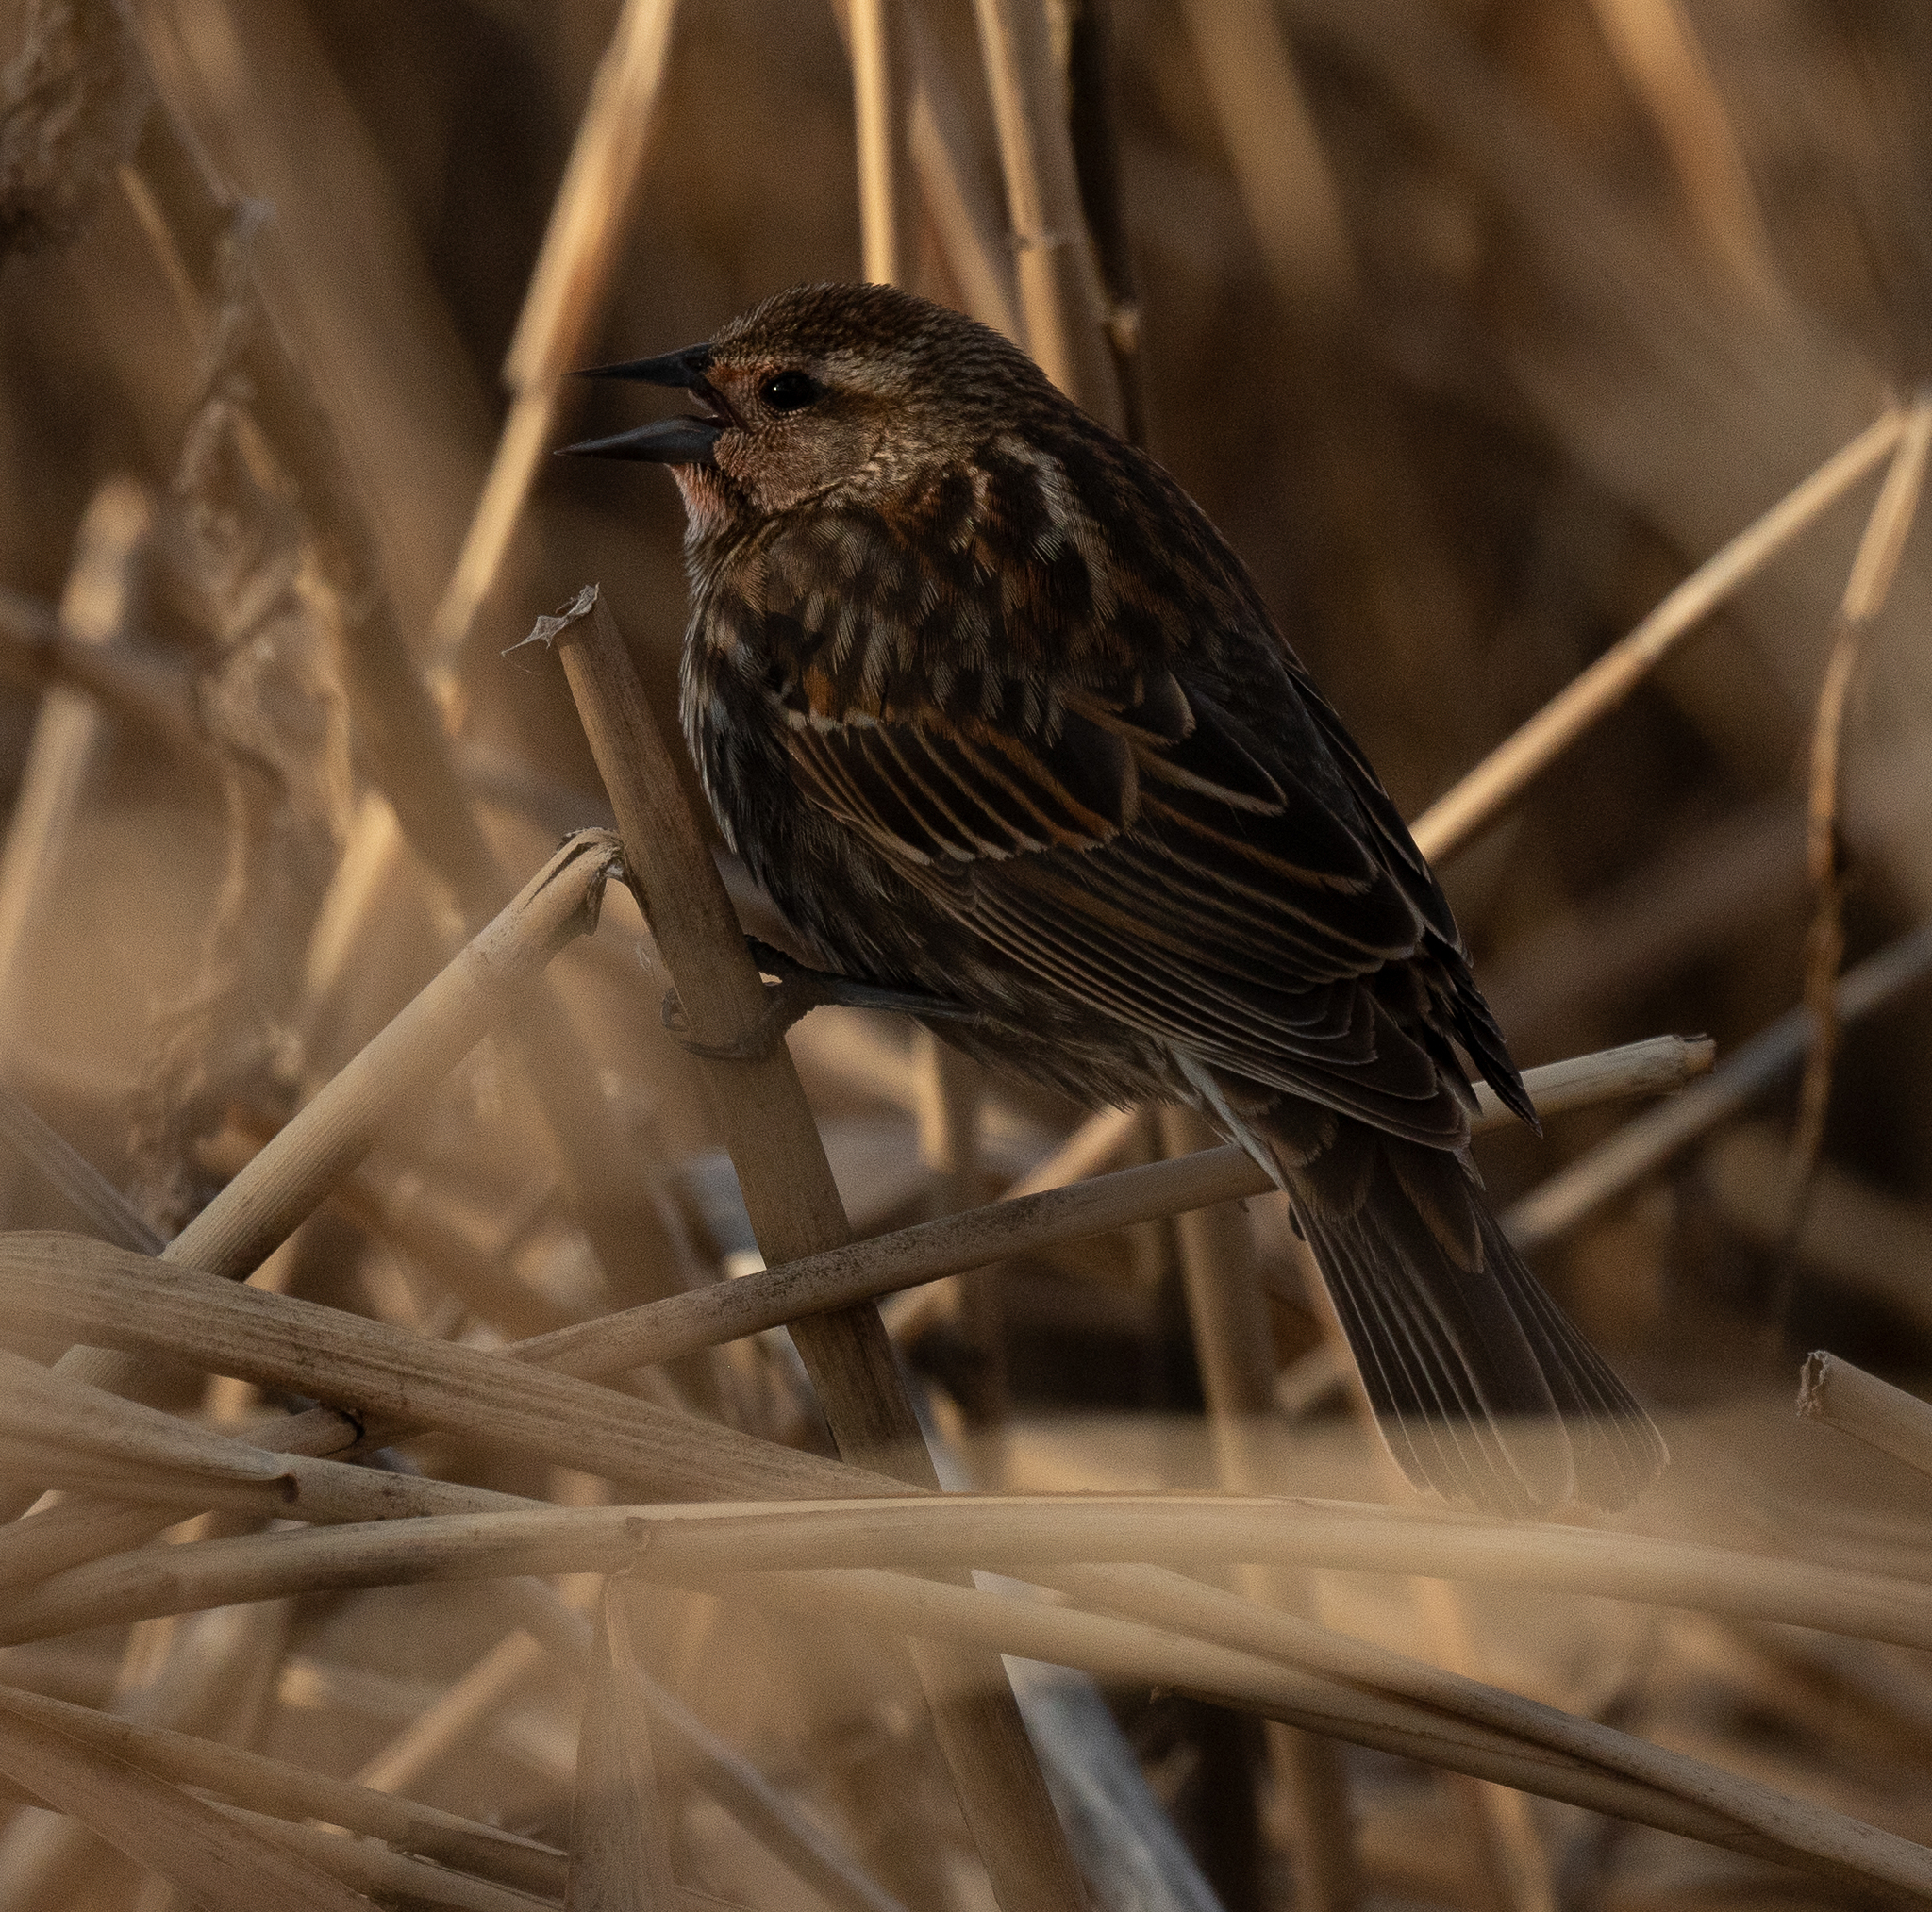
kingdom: Animalia
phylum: Chordata
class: Aves
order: Passeriformes
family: Icteridae
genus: Agelaius
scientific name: Agelaius phoeniceus
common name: Red-winged blackbird
